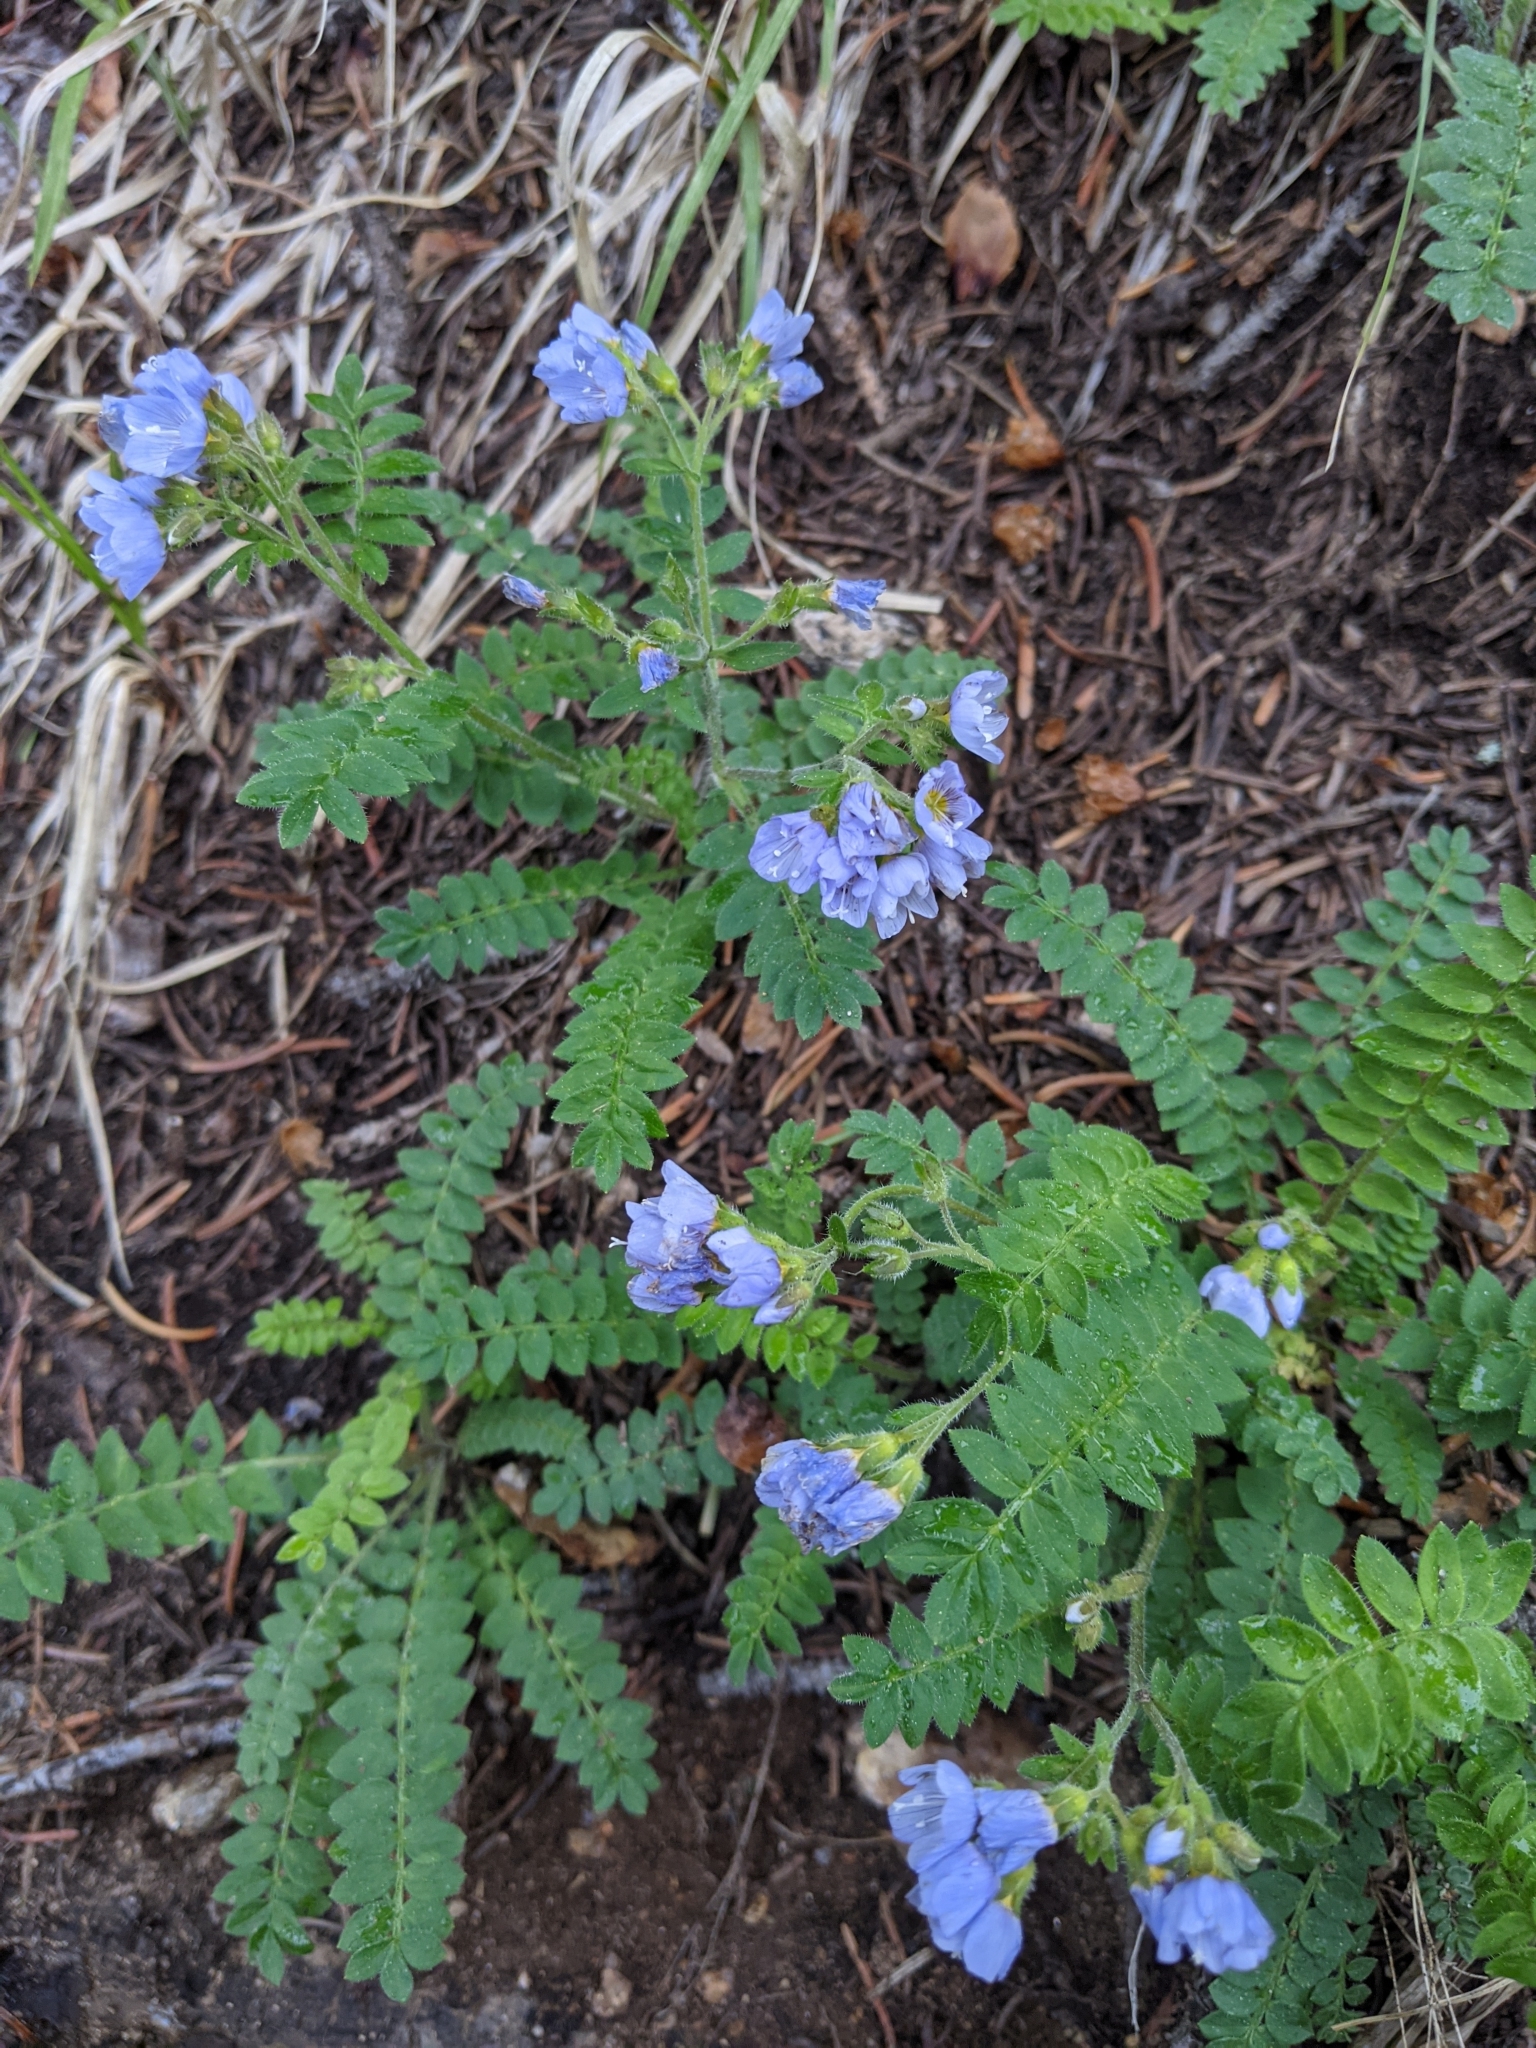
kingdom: Plantae
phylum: Tracheophyta
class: Magnoliopsida
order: Ericales
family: Polemoniaceae
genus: Polemonium
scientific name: Polemonium pulcherrimum
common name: Short jacob's-ladder
